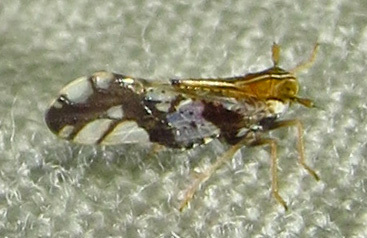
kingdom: Animalia
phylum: Arthropoda
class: Insecta
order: Hemiptera
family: Delphacidae
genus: Liburniella
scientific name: Liburniella ornata
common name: Ornate planthopper
